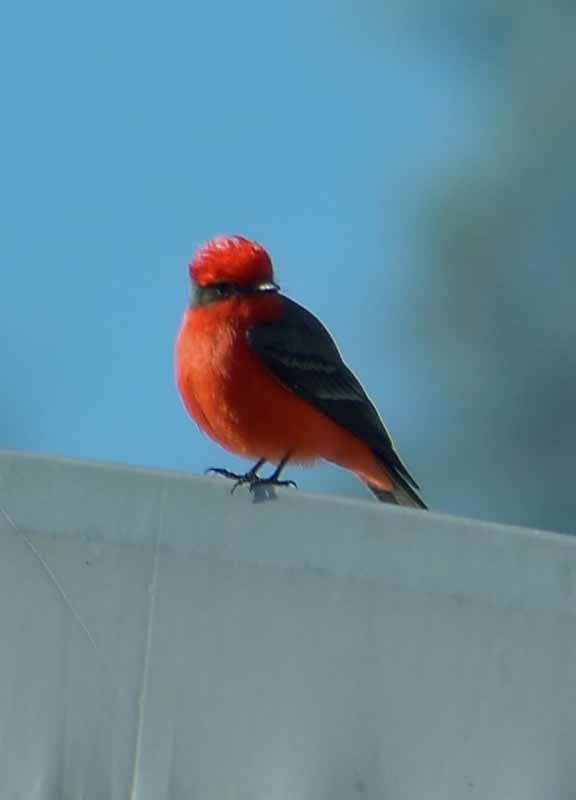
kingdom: Animalia
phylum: Chordata
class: Aves
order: Passeriformes
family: Tyrannidae
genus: Pyrocephalus
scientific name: Pyrocephalus rubinus
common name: Vermilion flycatcher
